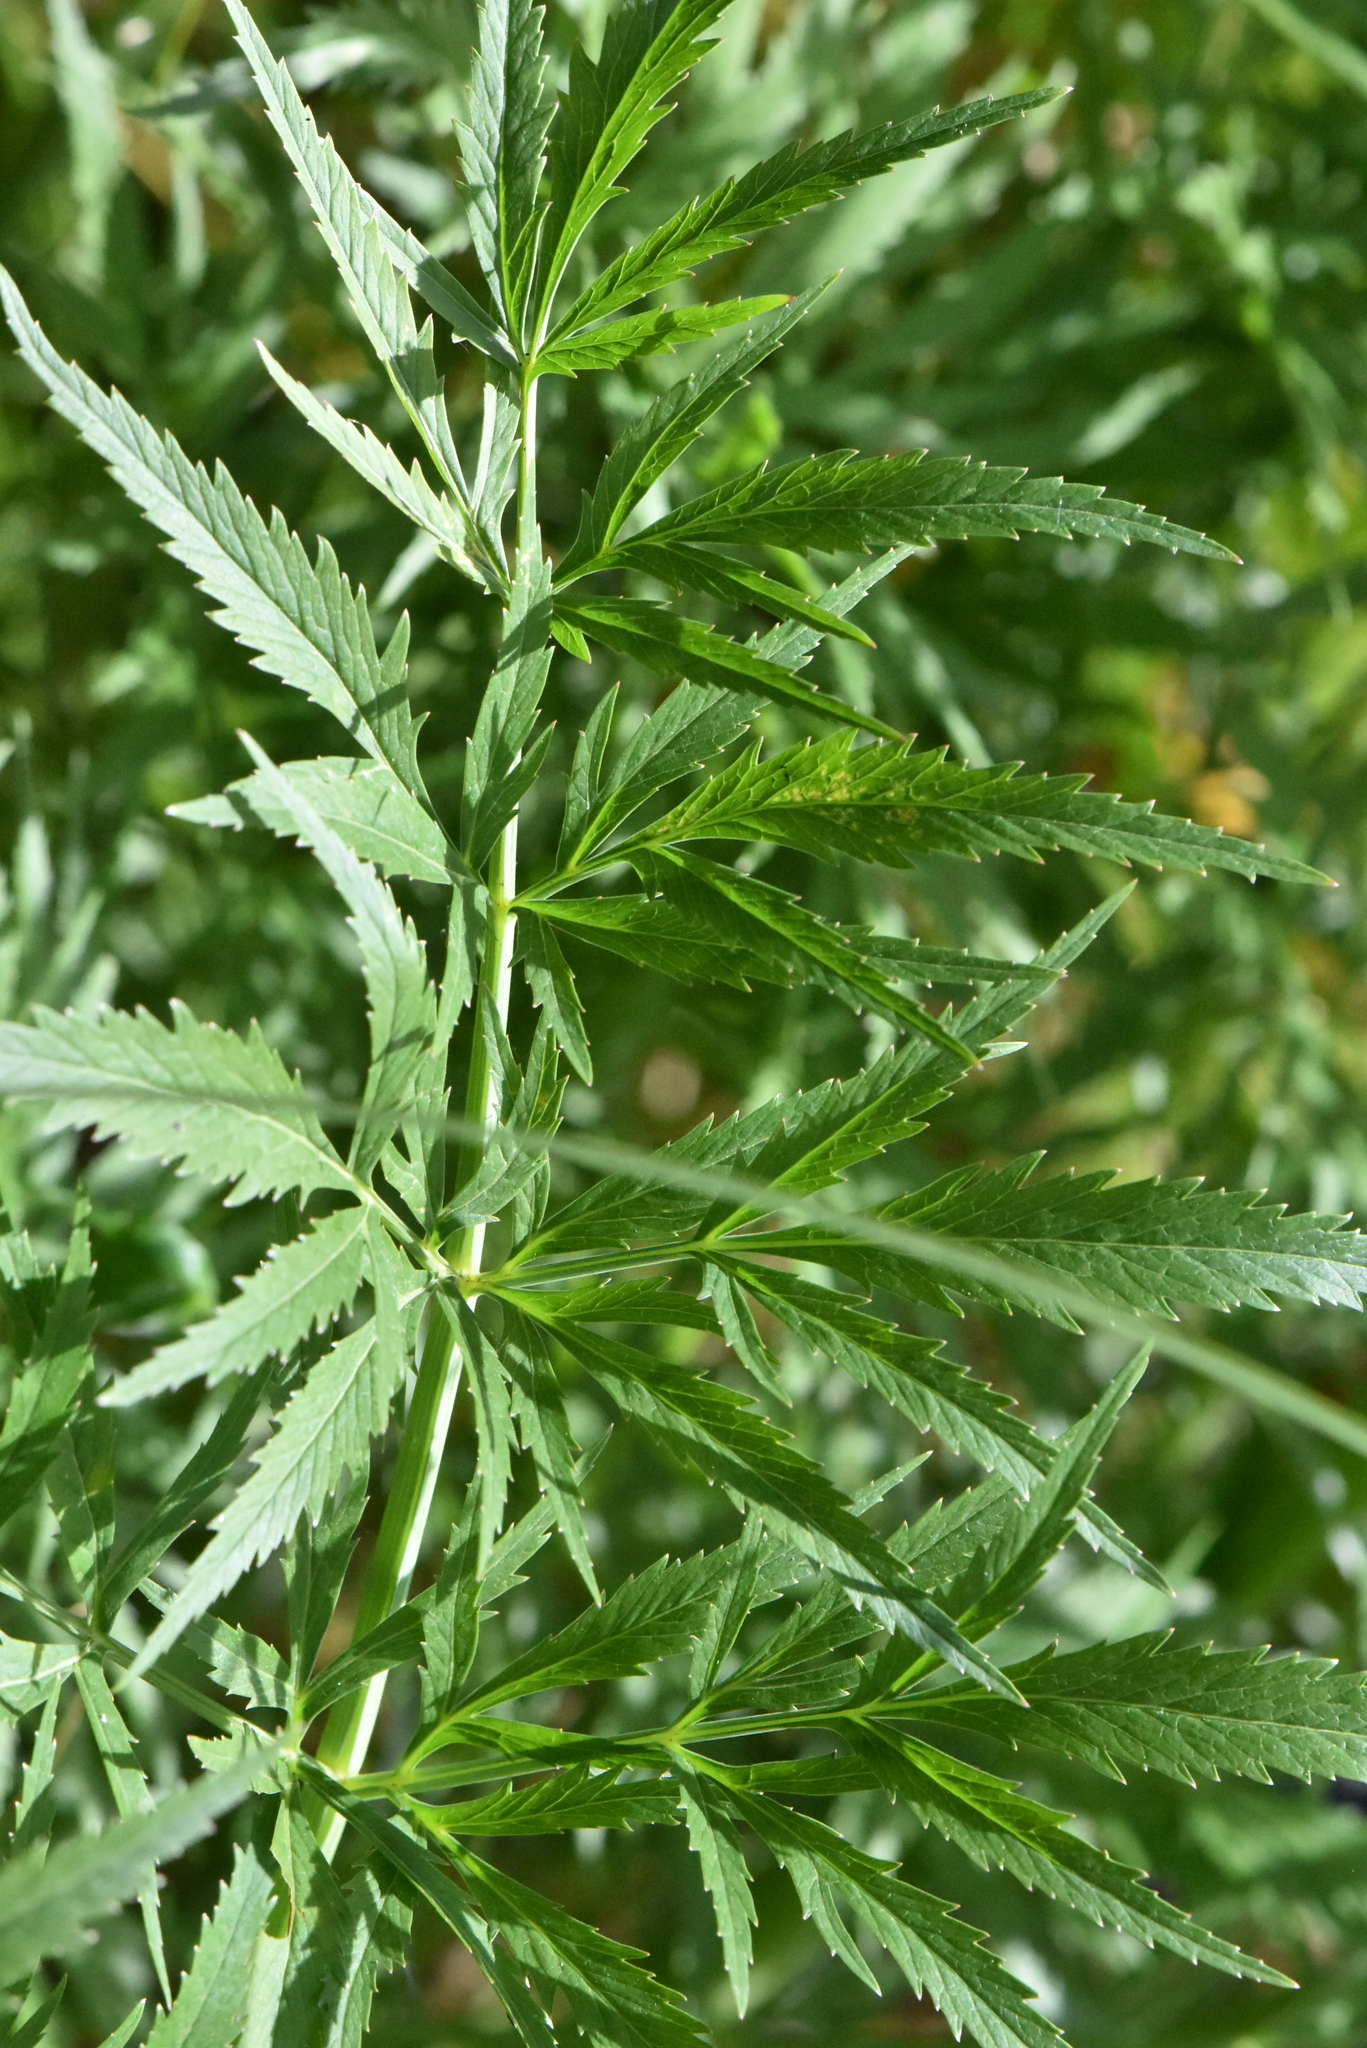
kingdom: Plantae
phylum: Tracheophyta
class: Magnoliopsida
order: Apiales
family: Apiaceae
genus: Cicuta
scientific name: Cicuta virosa
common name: Cowbane
